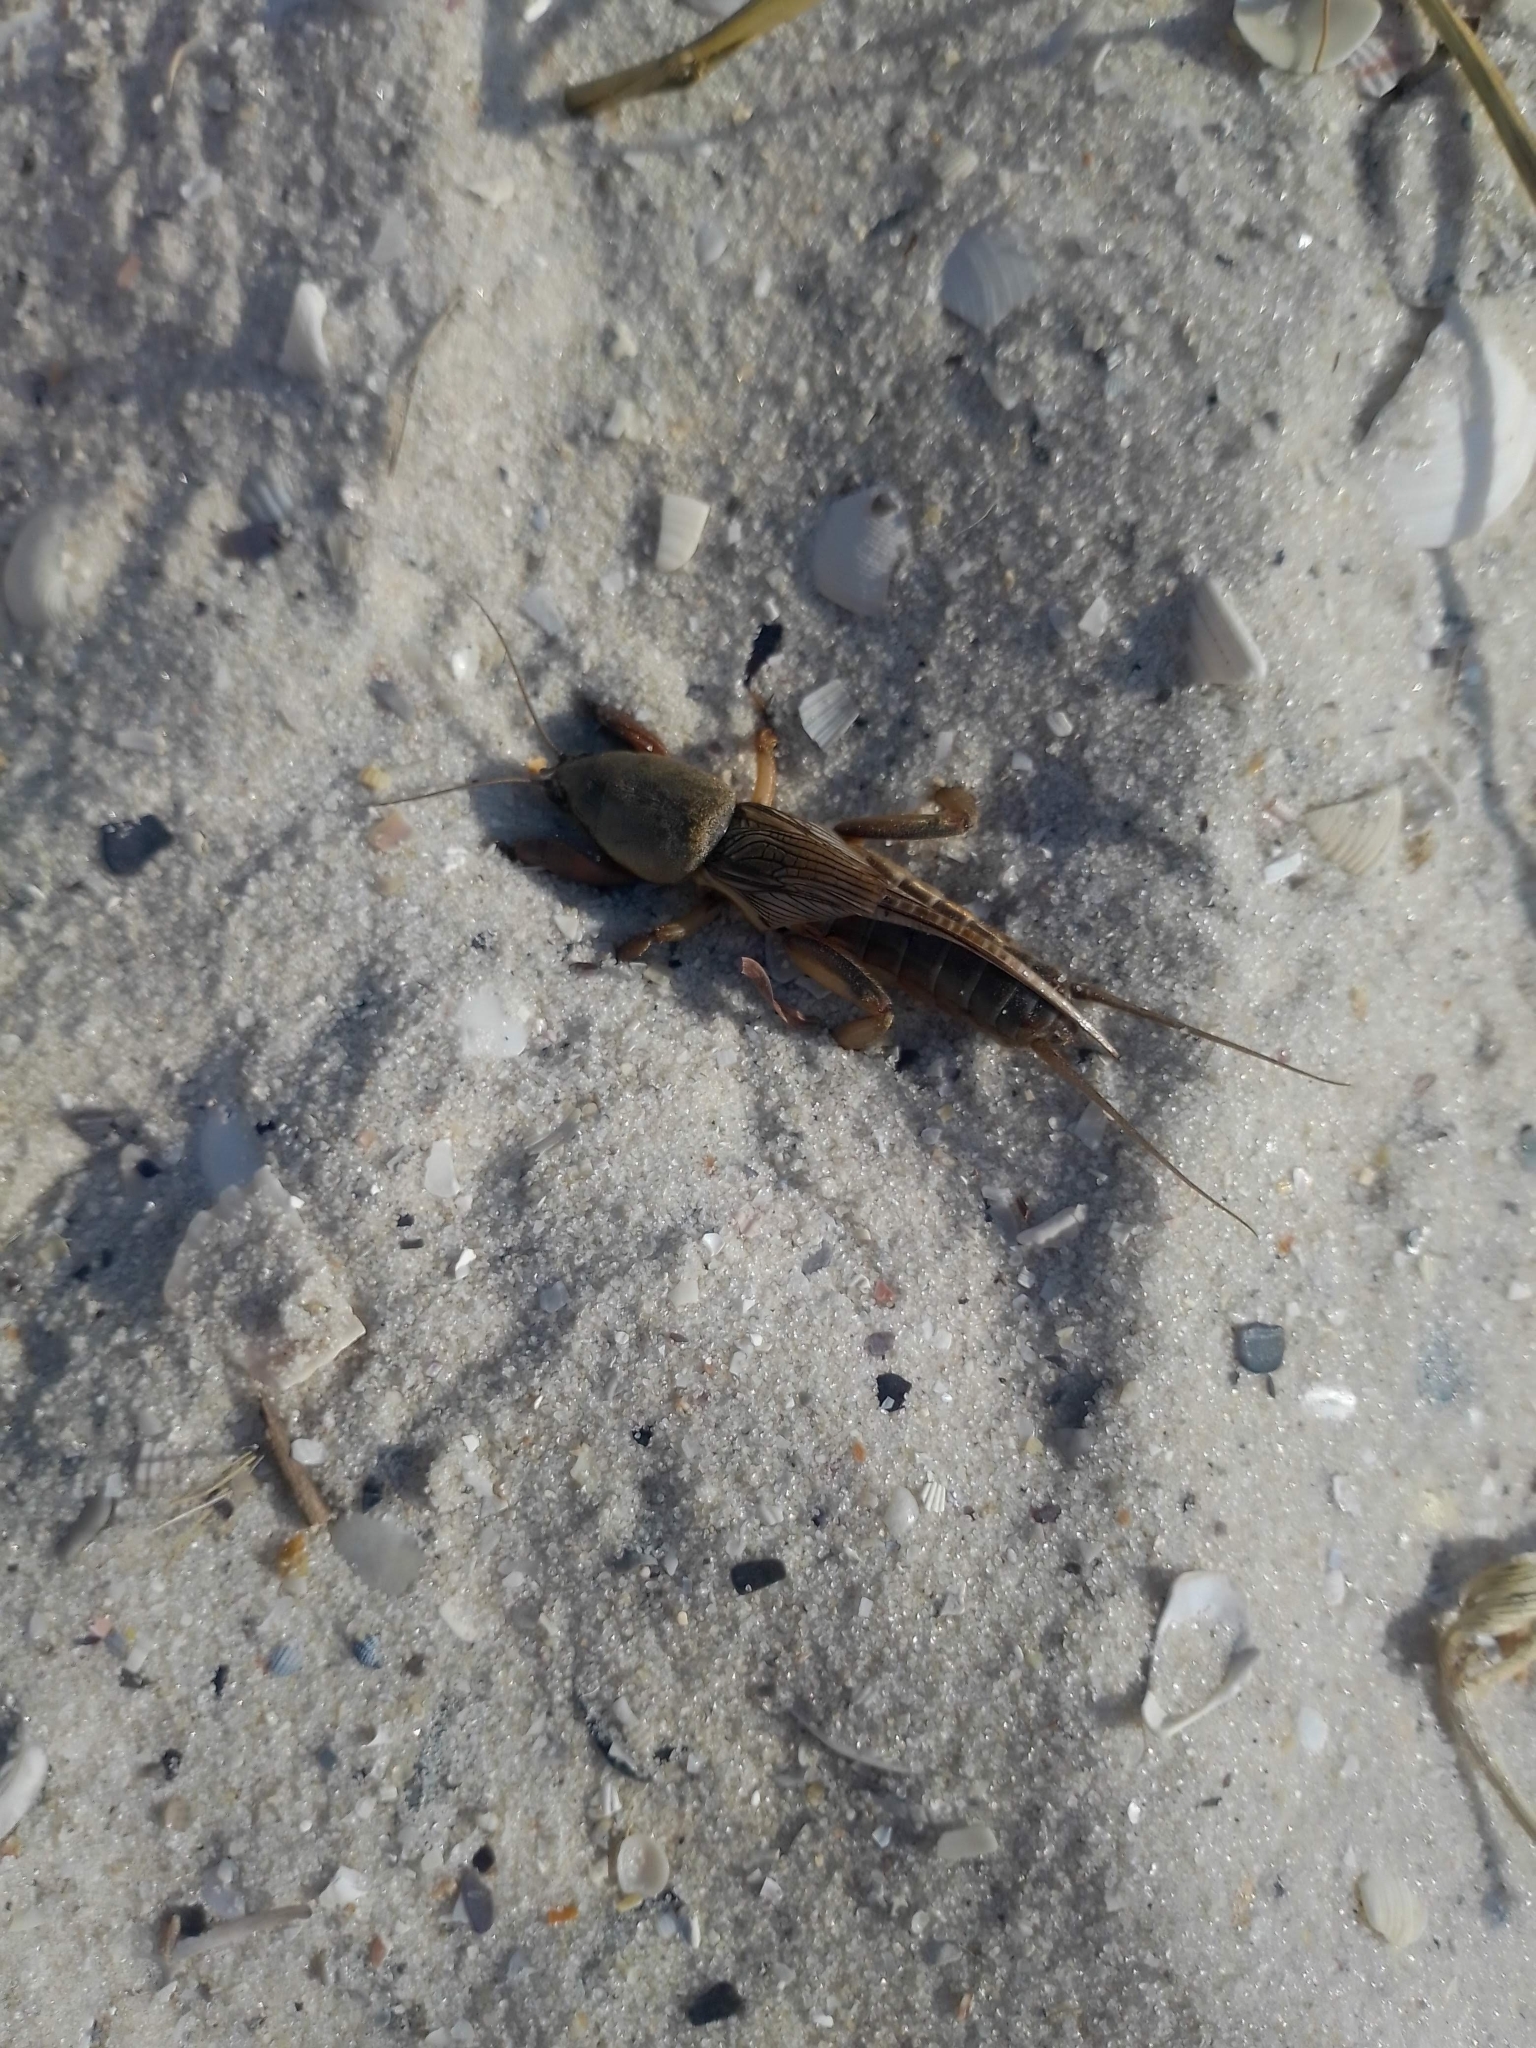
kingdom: Animalia
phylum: Arthropoda
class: Insecta
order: Orthoptera
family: Gryllotalpidae
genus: Gryllotalpa
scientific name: Gryllotalpa gryllotalpa
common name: European mole cricket
